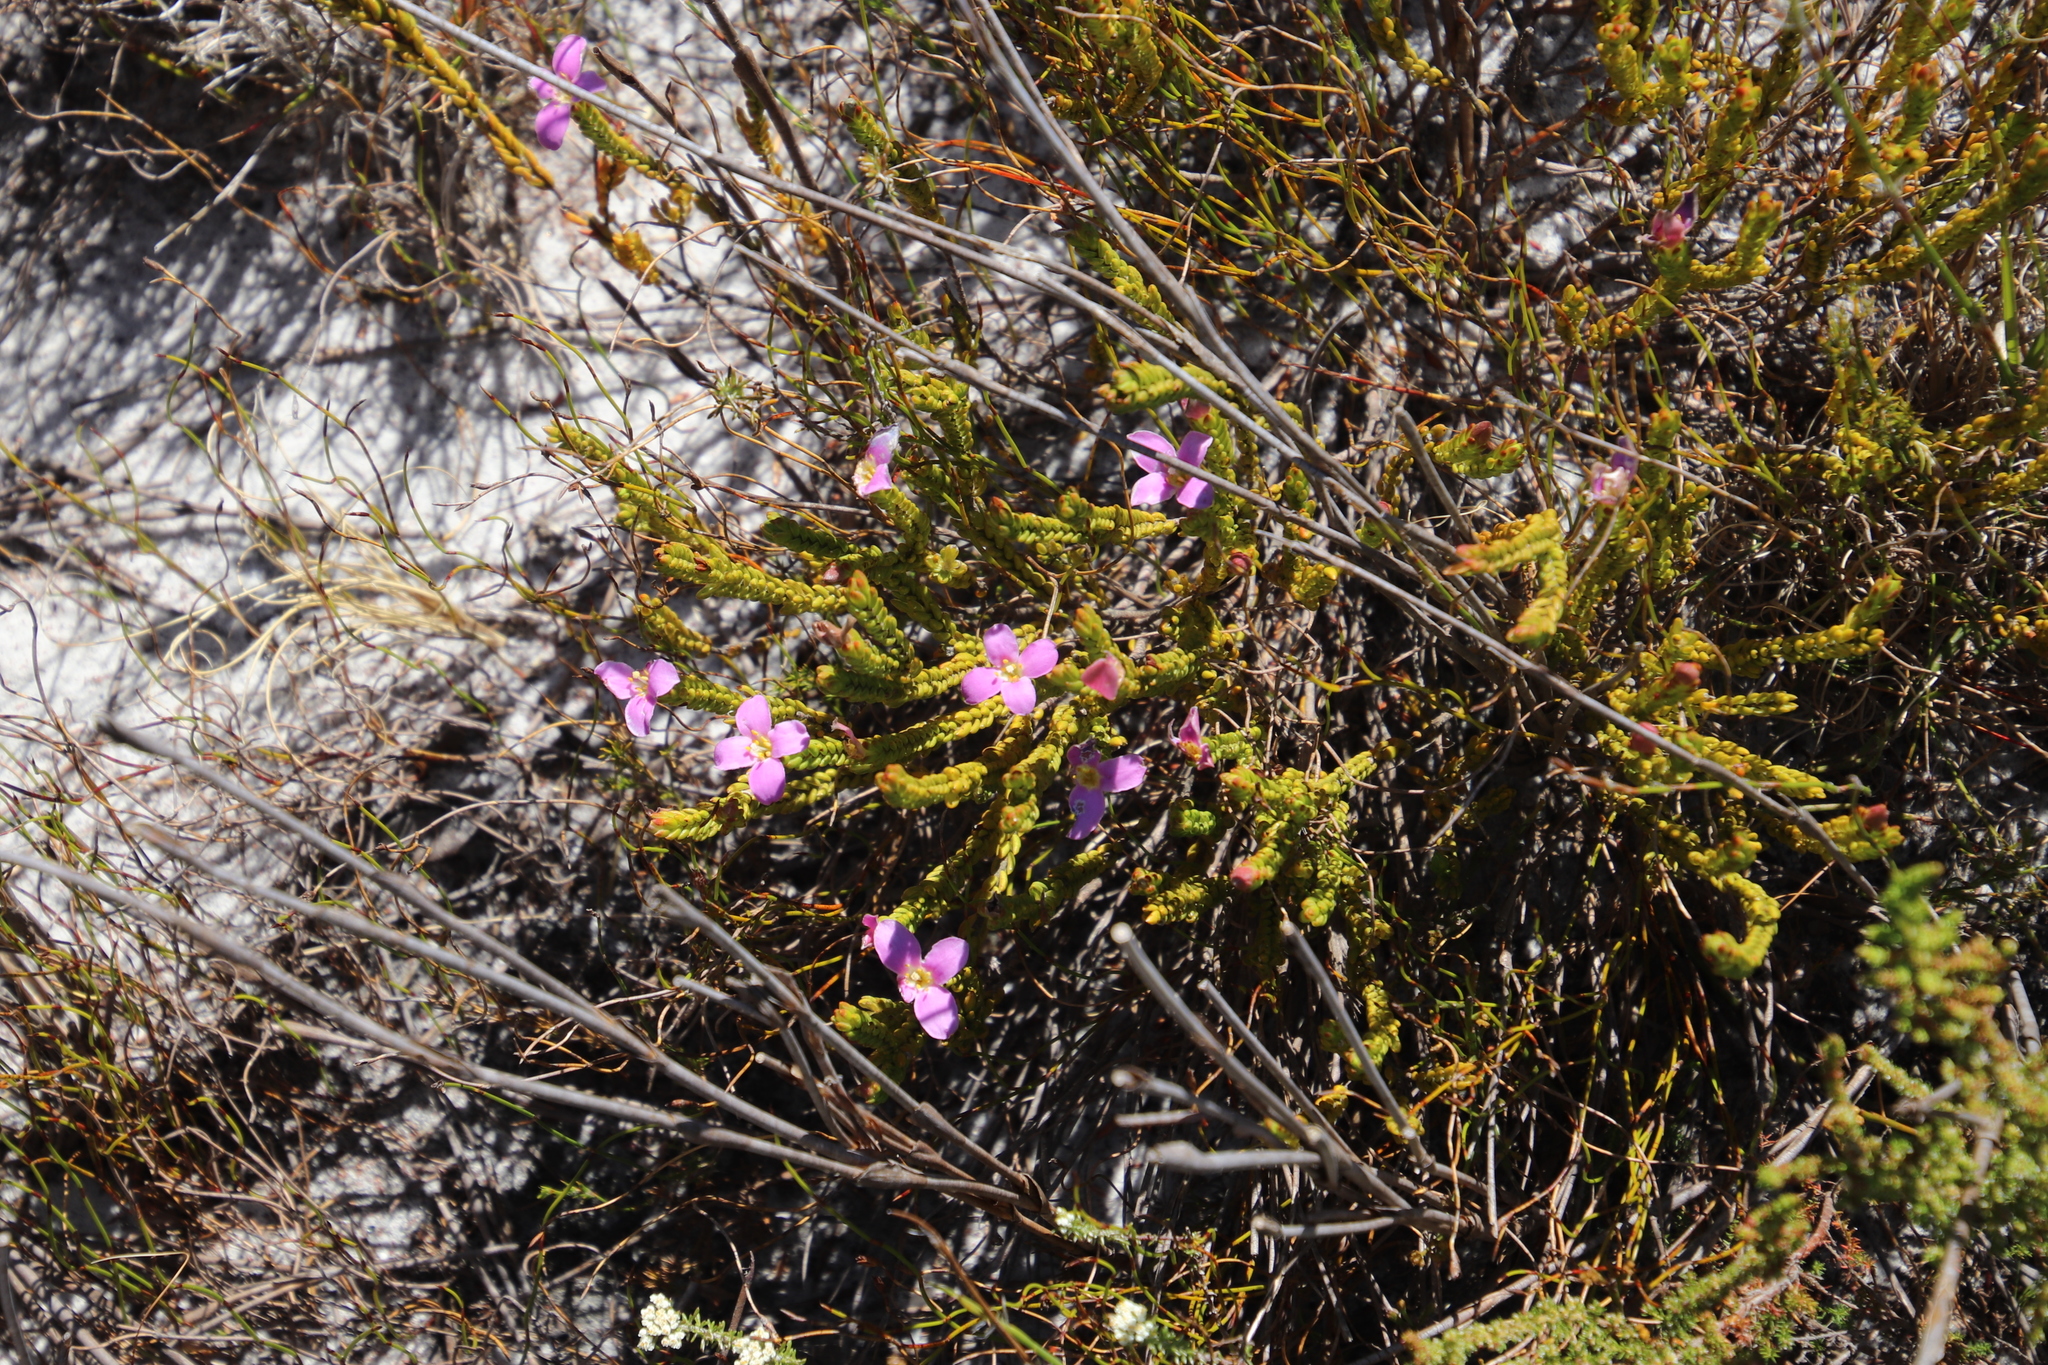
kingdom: Plantae
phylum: Tracheophyta
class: Magnoliopsida
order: Malvales
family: Thymelaeaceae
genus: Lachnaea
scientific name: Lachnaea grandiflora
